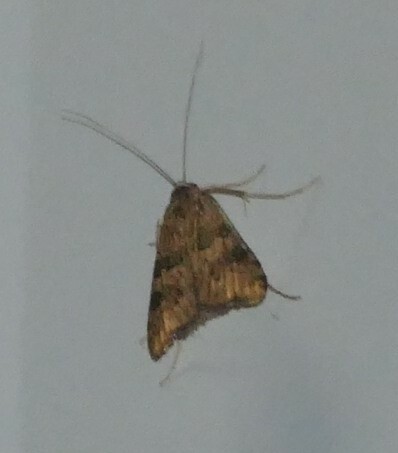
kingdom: Animalia
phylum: Arthropoda
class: Insecta
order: Lepidoptera
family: Crambidae
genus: Nomophila
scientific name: Nomophila nearctica
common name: American rush veneer
